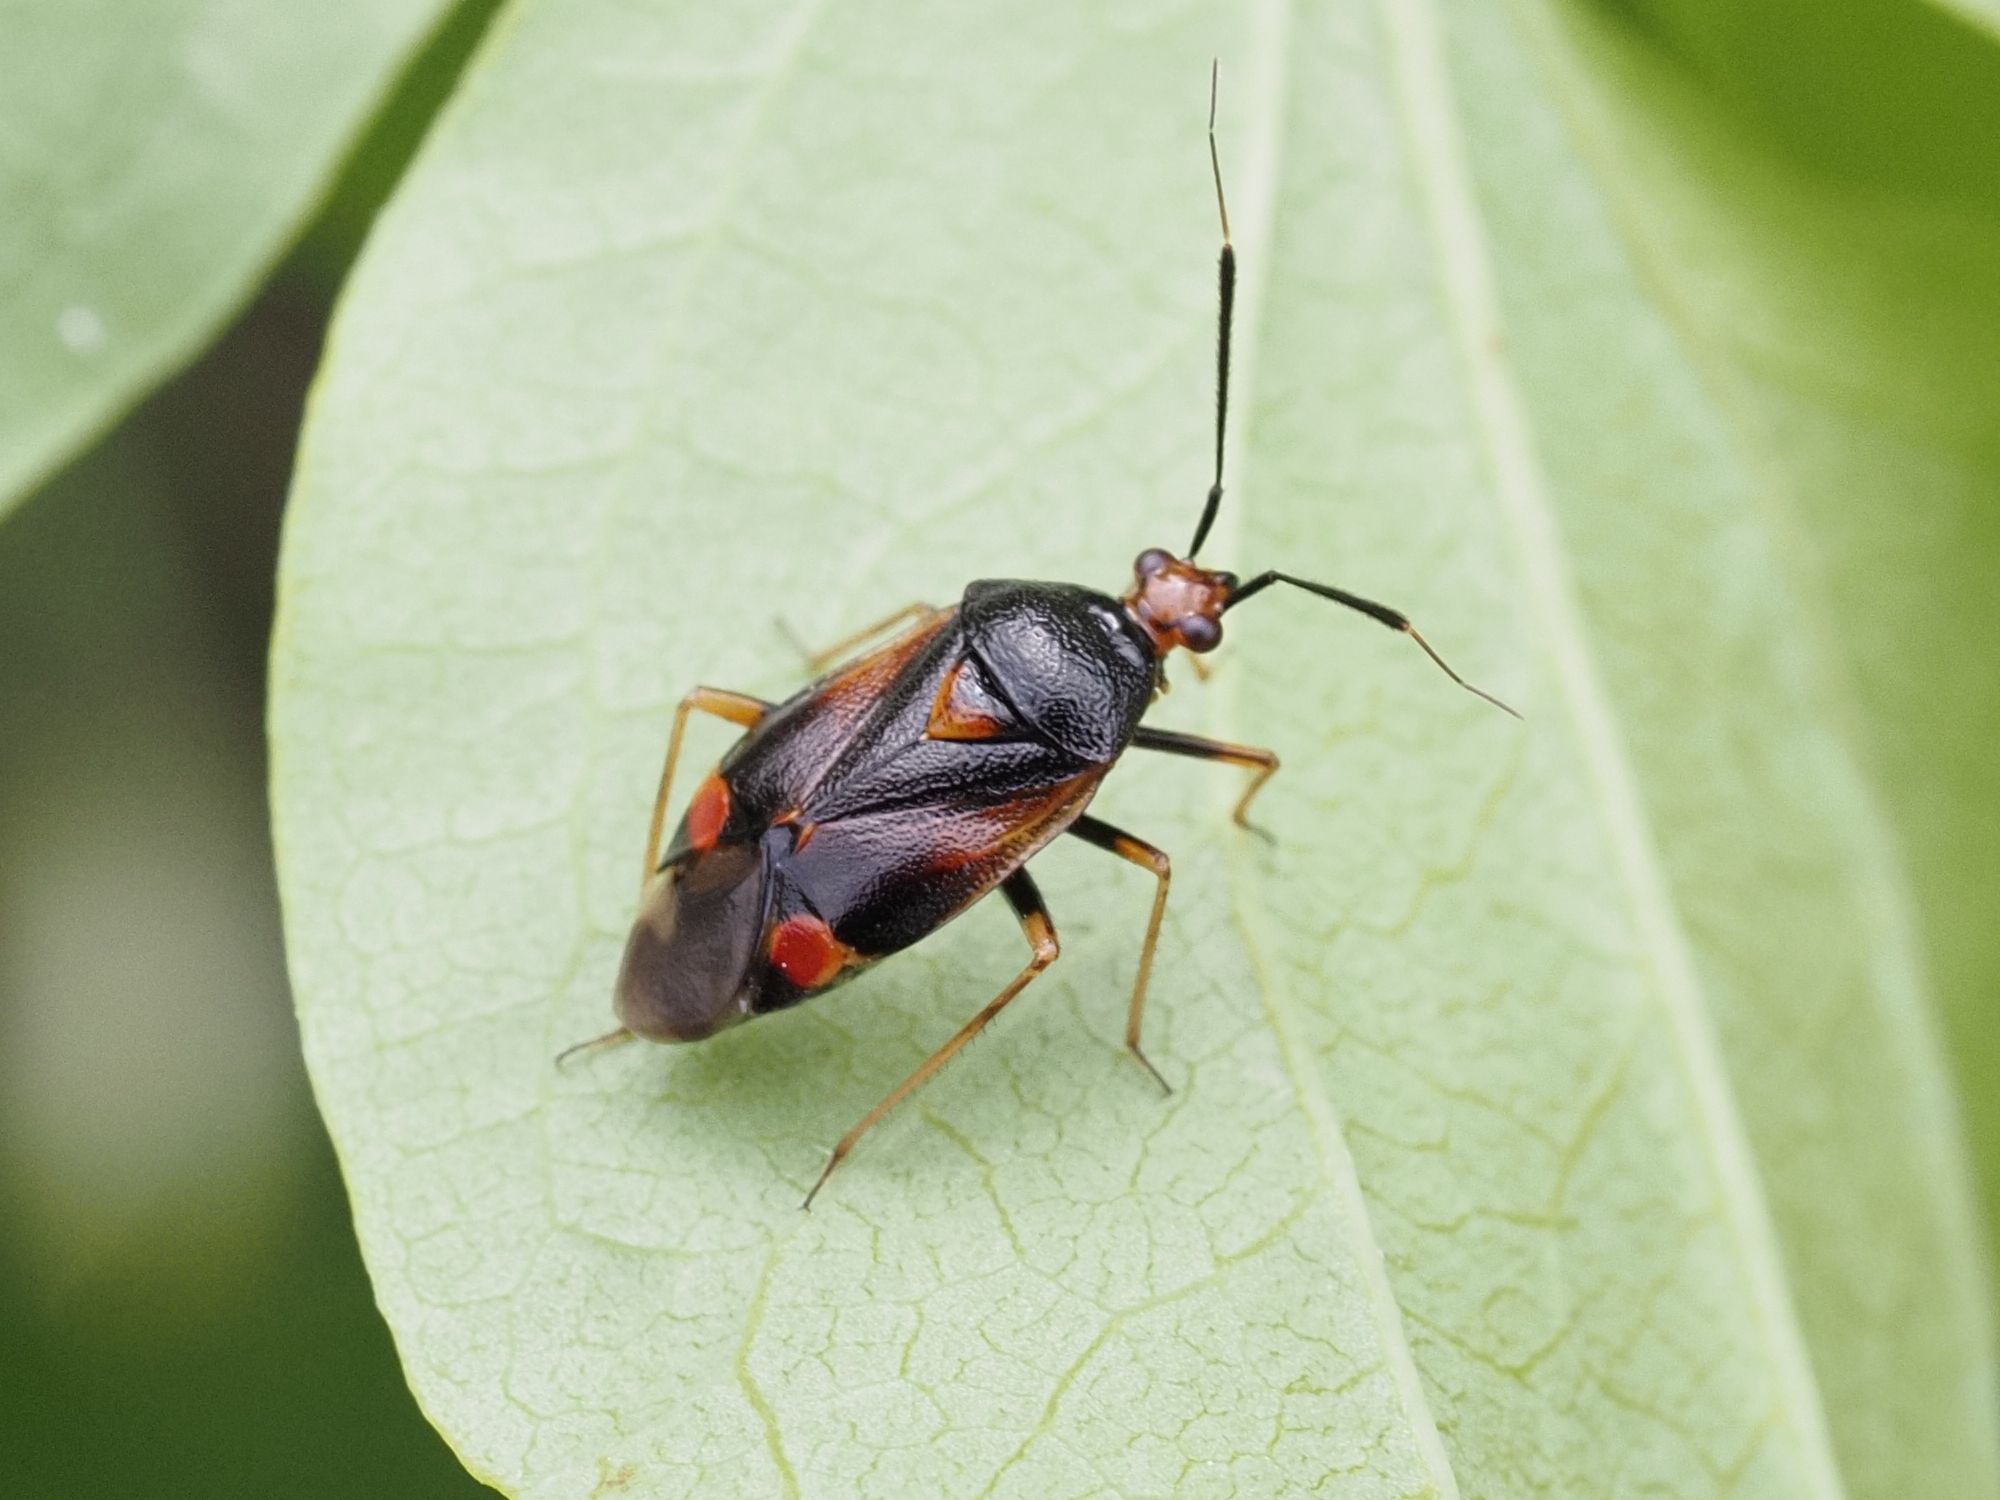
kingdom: Animalia
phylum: Arthropoda
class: Insecta
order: Hemiptera
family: Miridae
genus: Deraeocoris
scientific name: Deraeocoris ruber
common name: Plant bug
